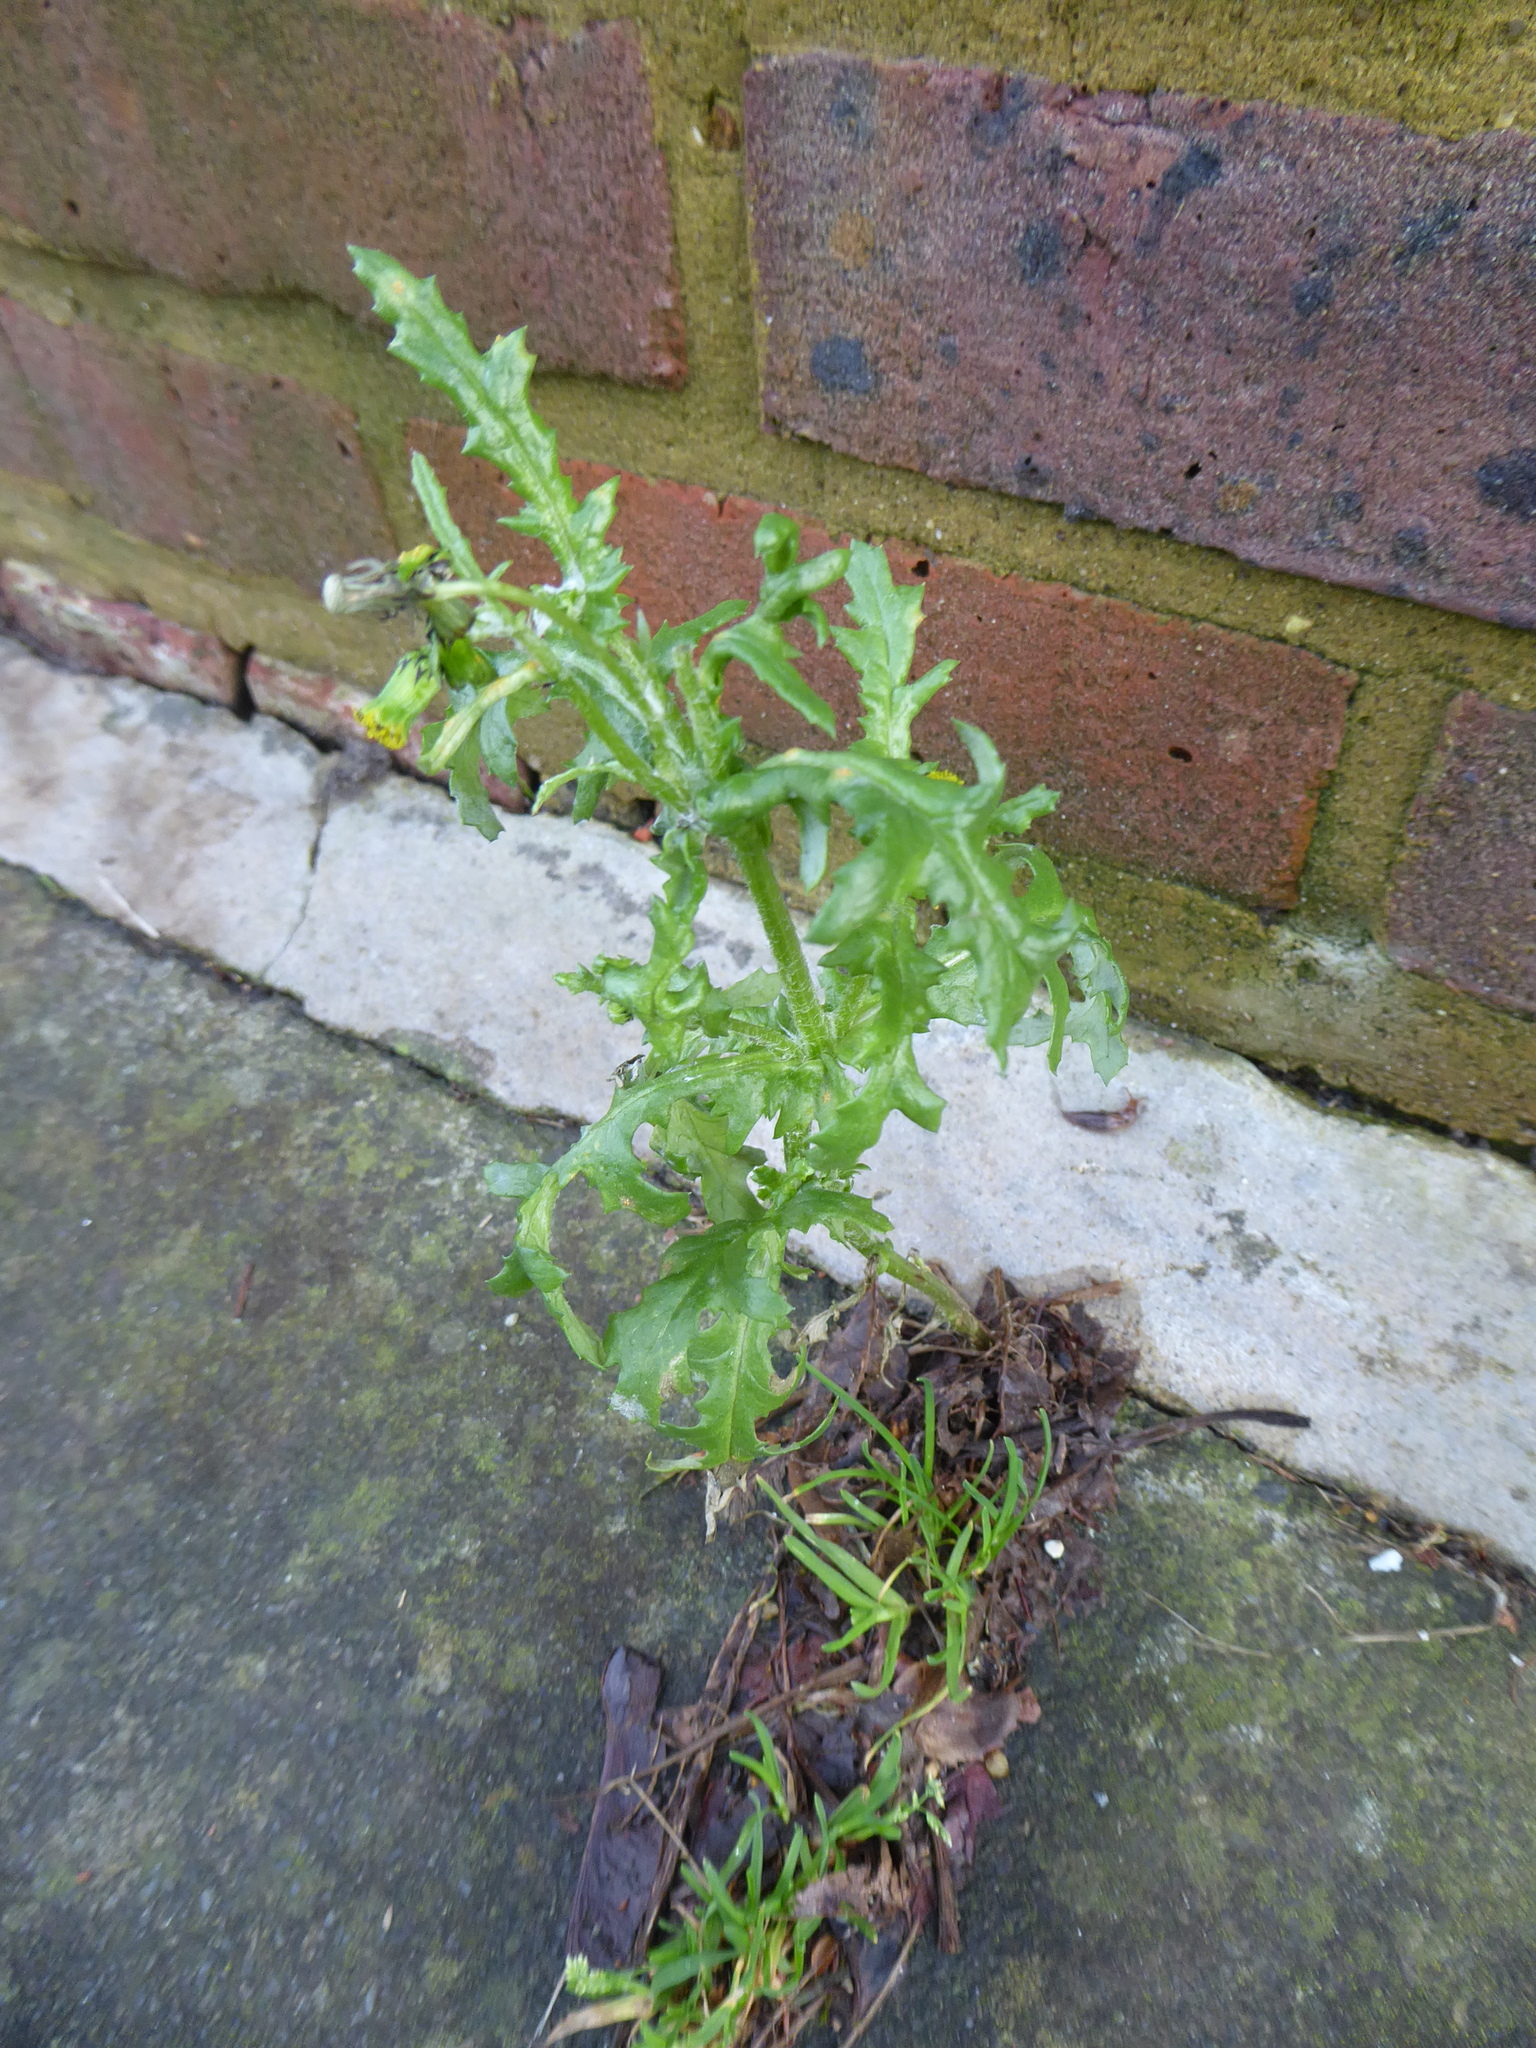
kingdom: Plantae
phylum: Tracheophyta
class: Magnoliopsida
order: Asterales
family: Asteraceae
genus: Senecio
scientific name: Senecio vulgaris
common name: Old-man-in-the-spring
